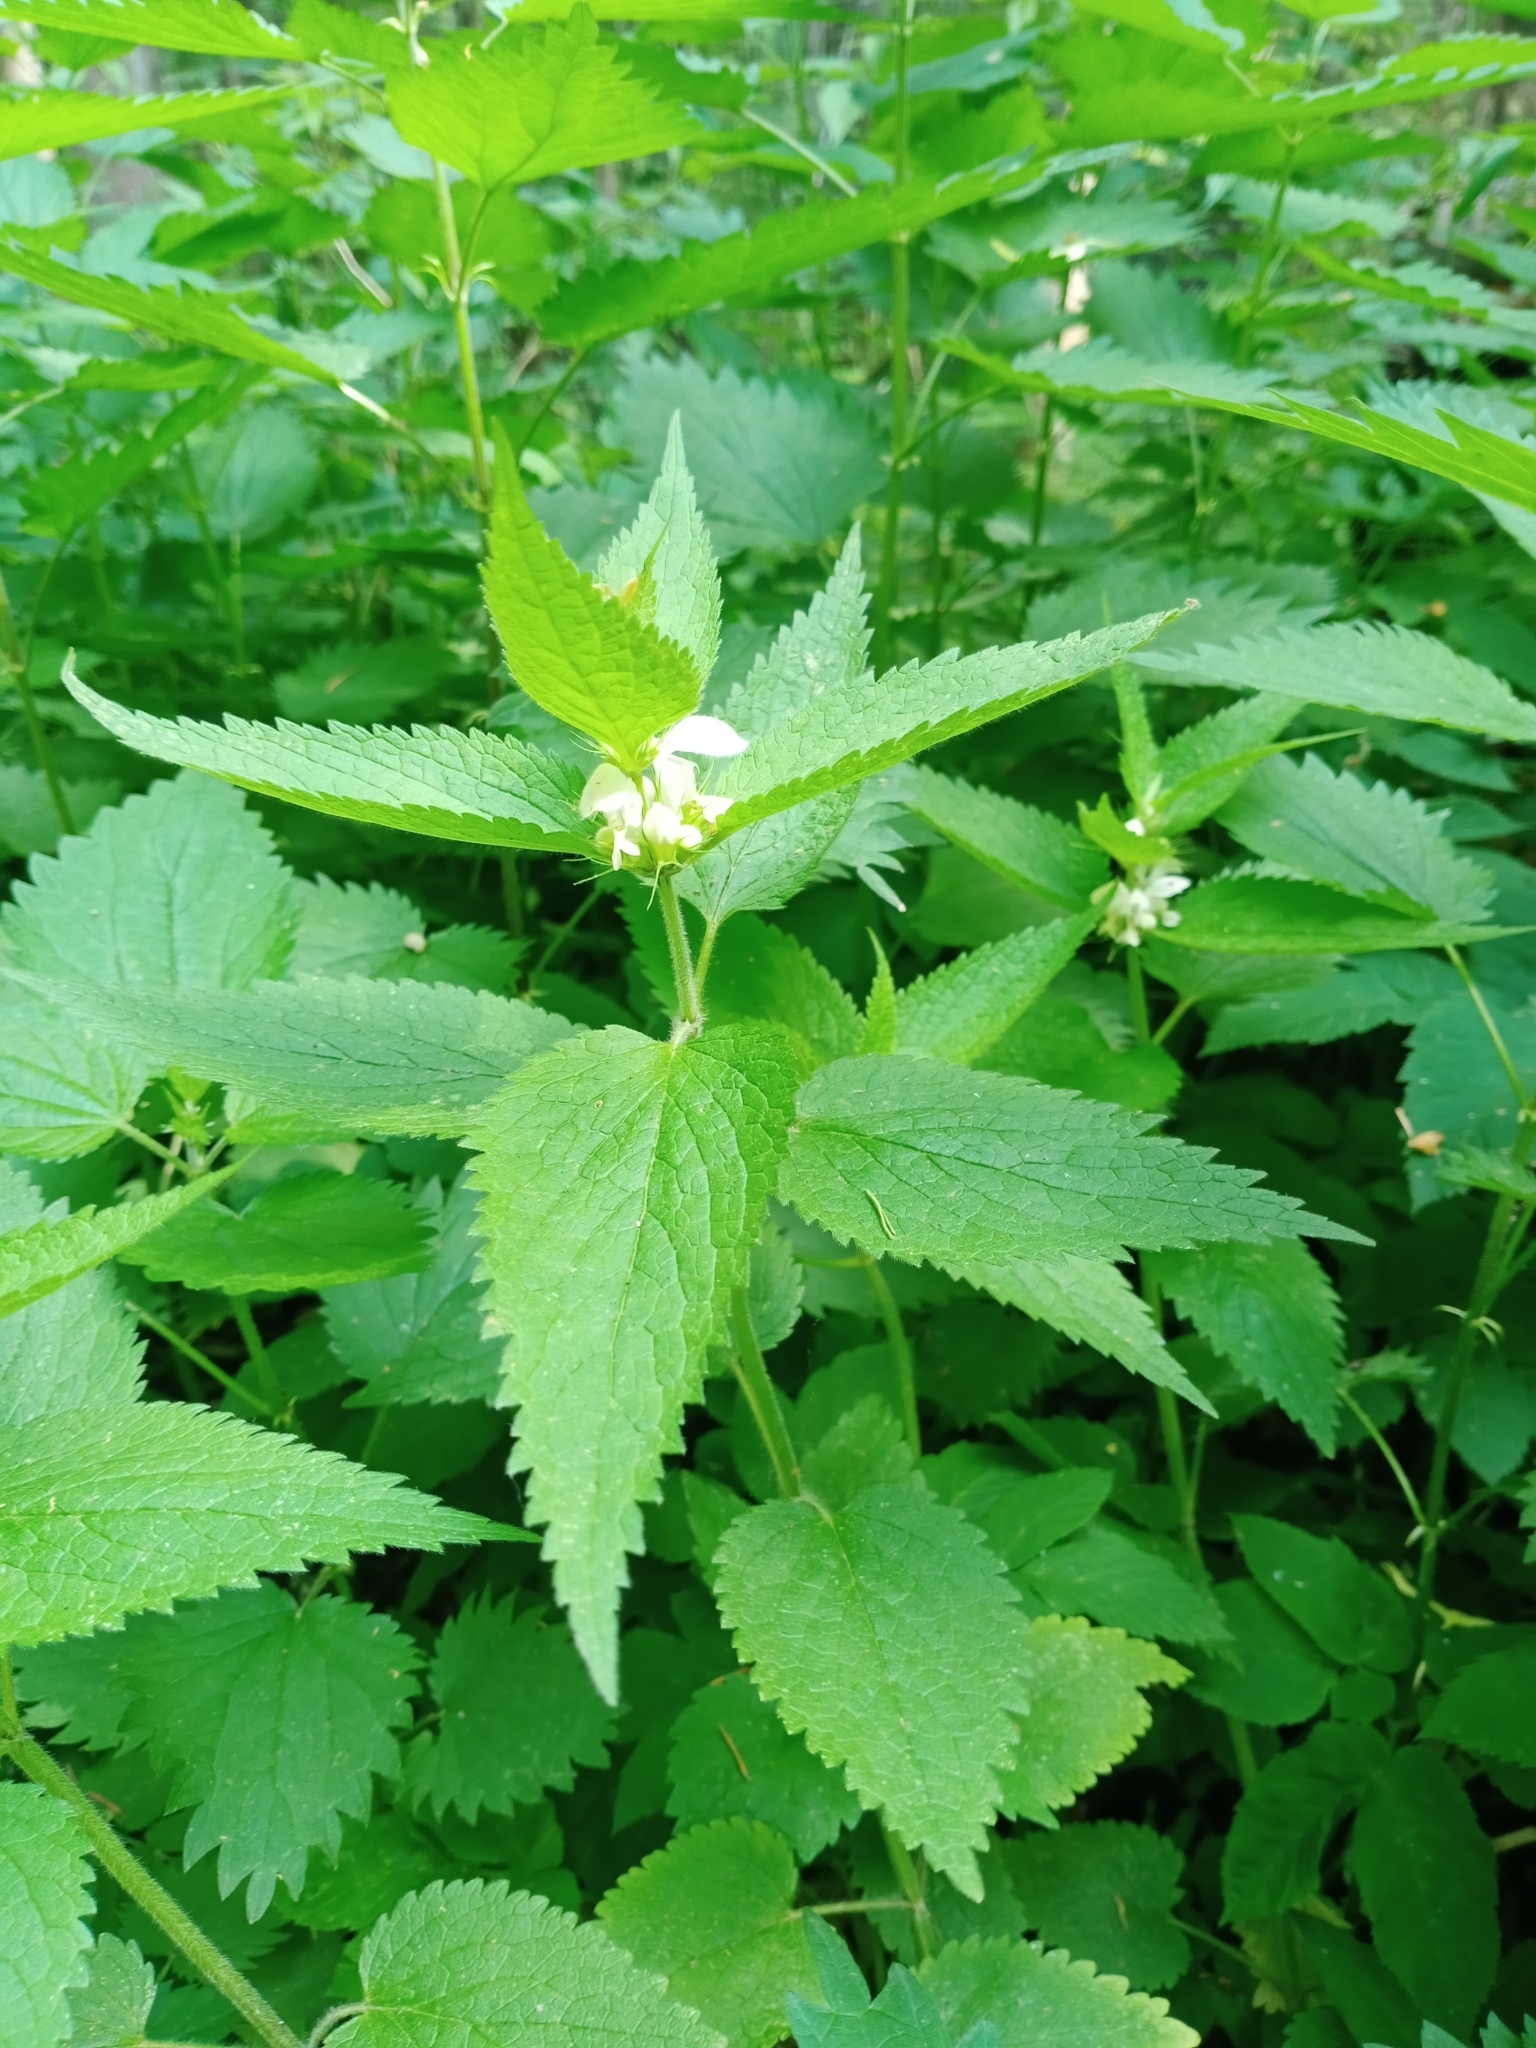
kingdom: Plantae
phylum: Tracheophyta
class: Magnoliopsida
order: Lamiales
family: Lamiaceae
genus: Lamium
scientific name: Lamium album
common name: White dead-nettle
